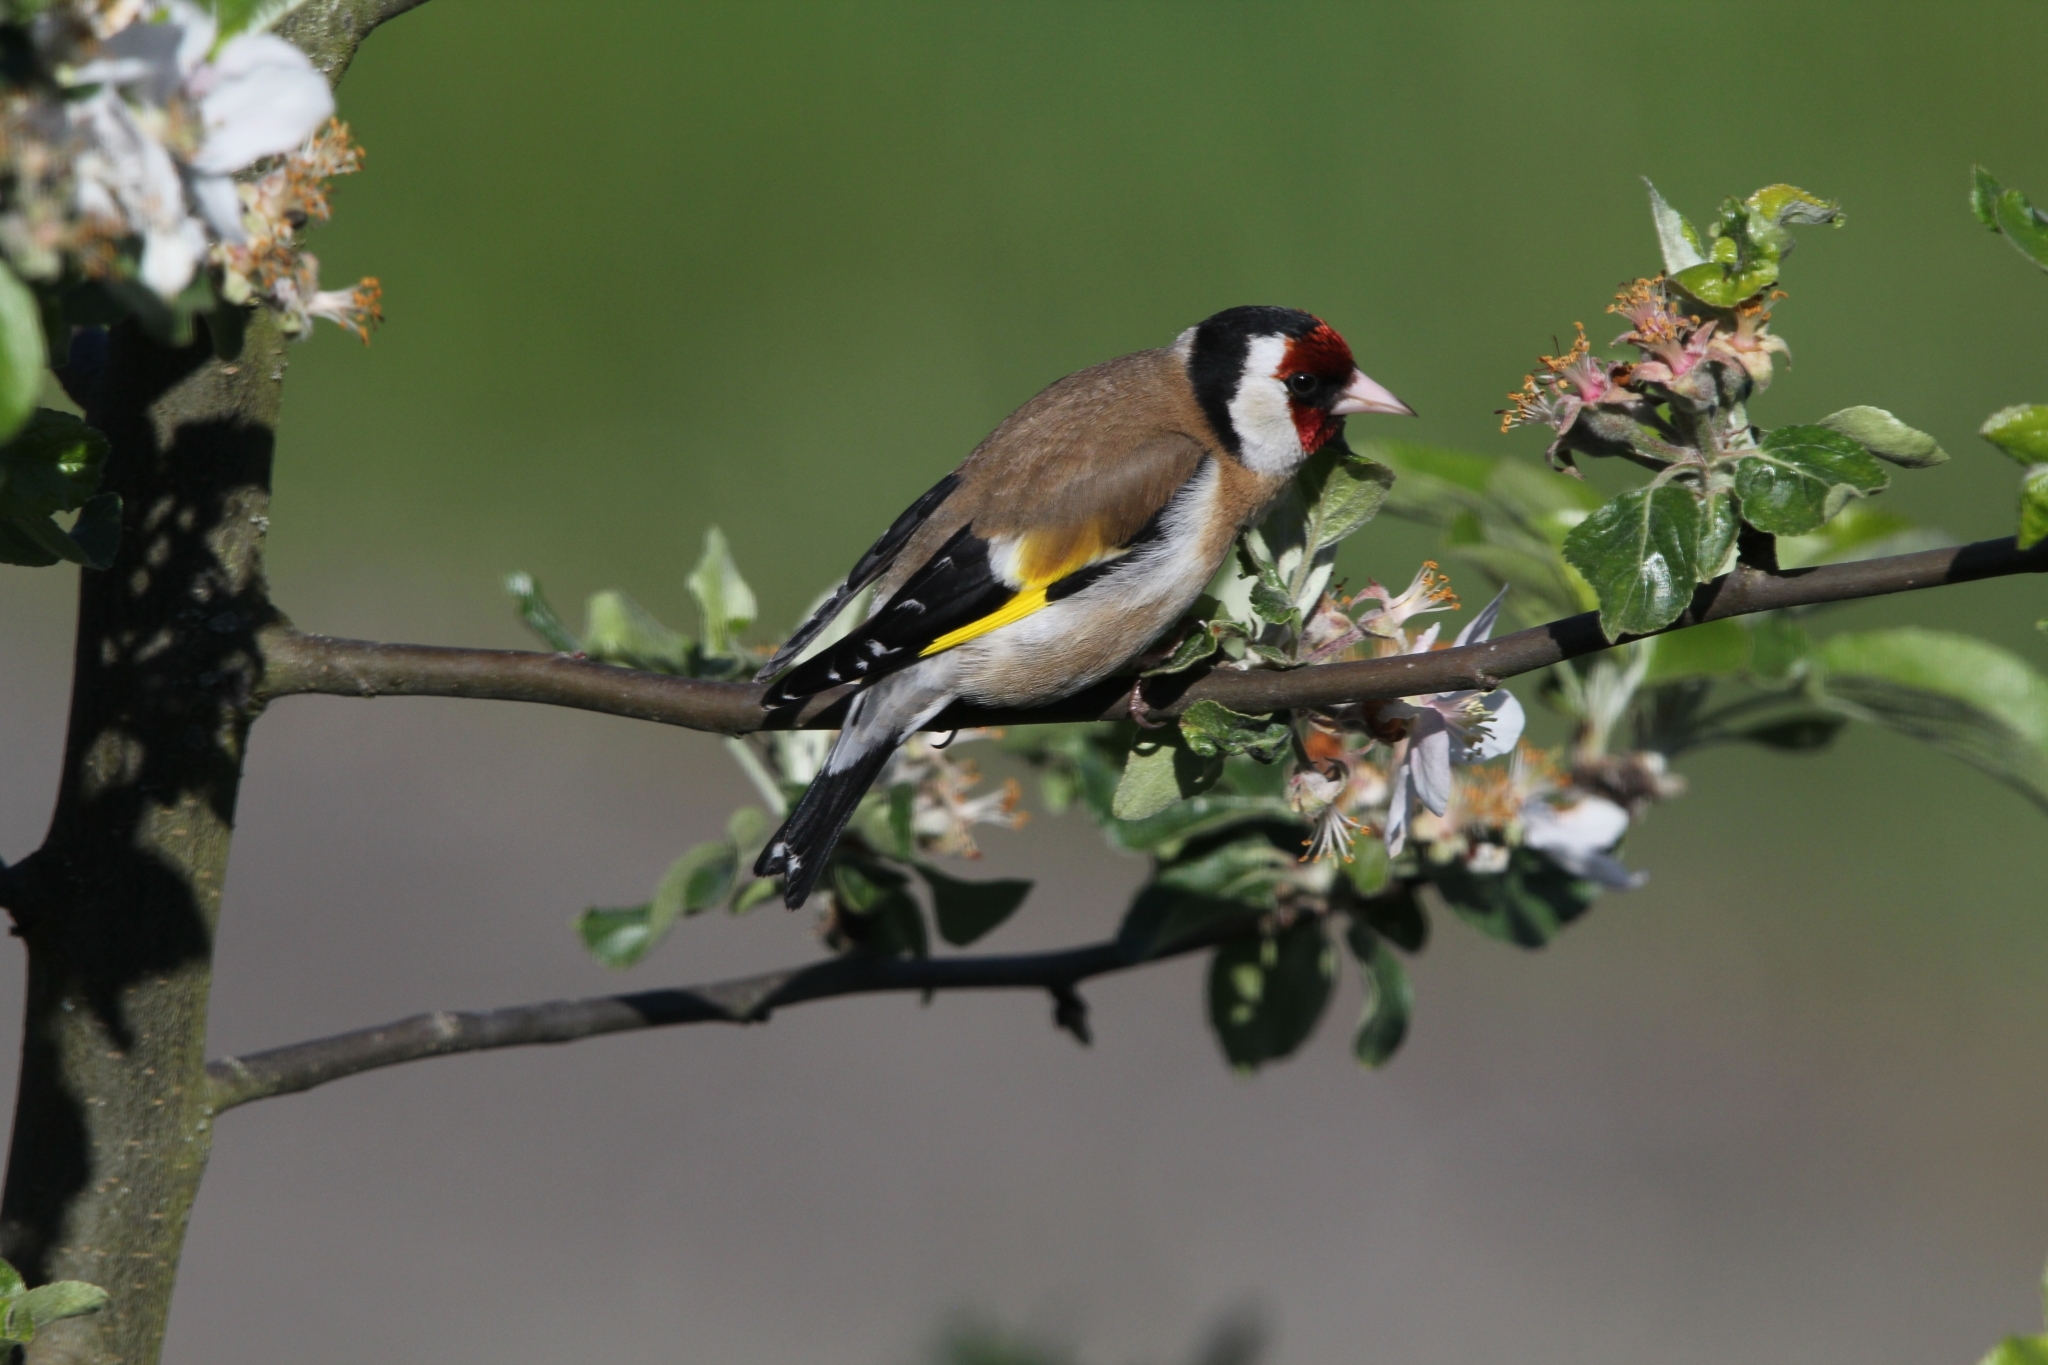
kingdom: Animalia
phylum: Chordata
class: Aves
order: Passeriformes
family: Fringillidae
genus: Carduelis
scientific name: Carduelis carduelis
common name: European goldfinch
